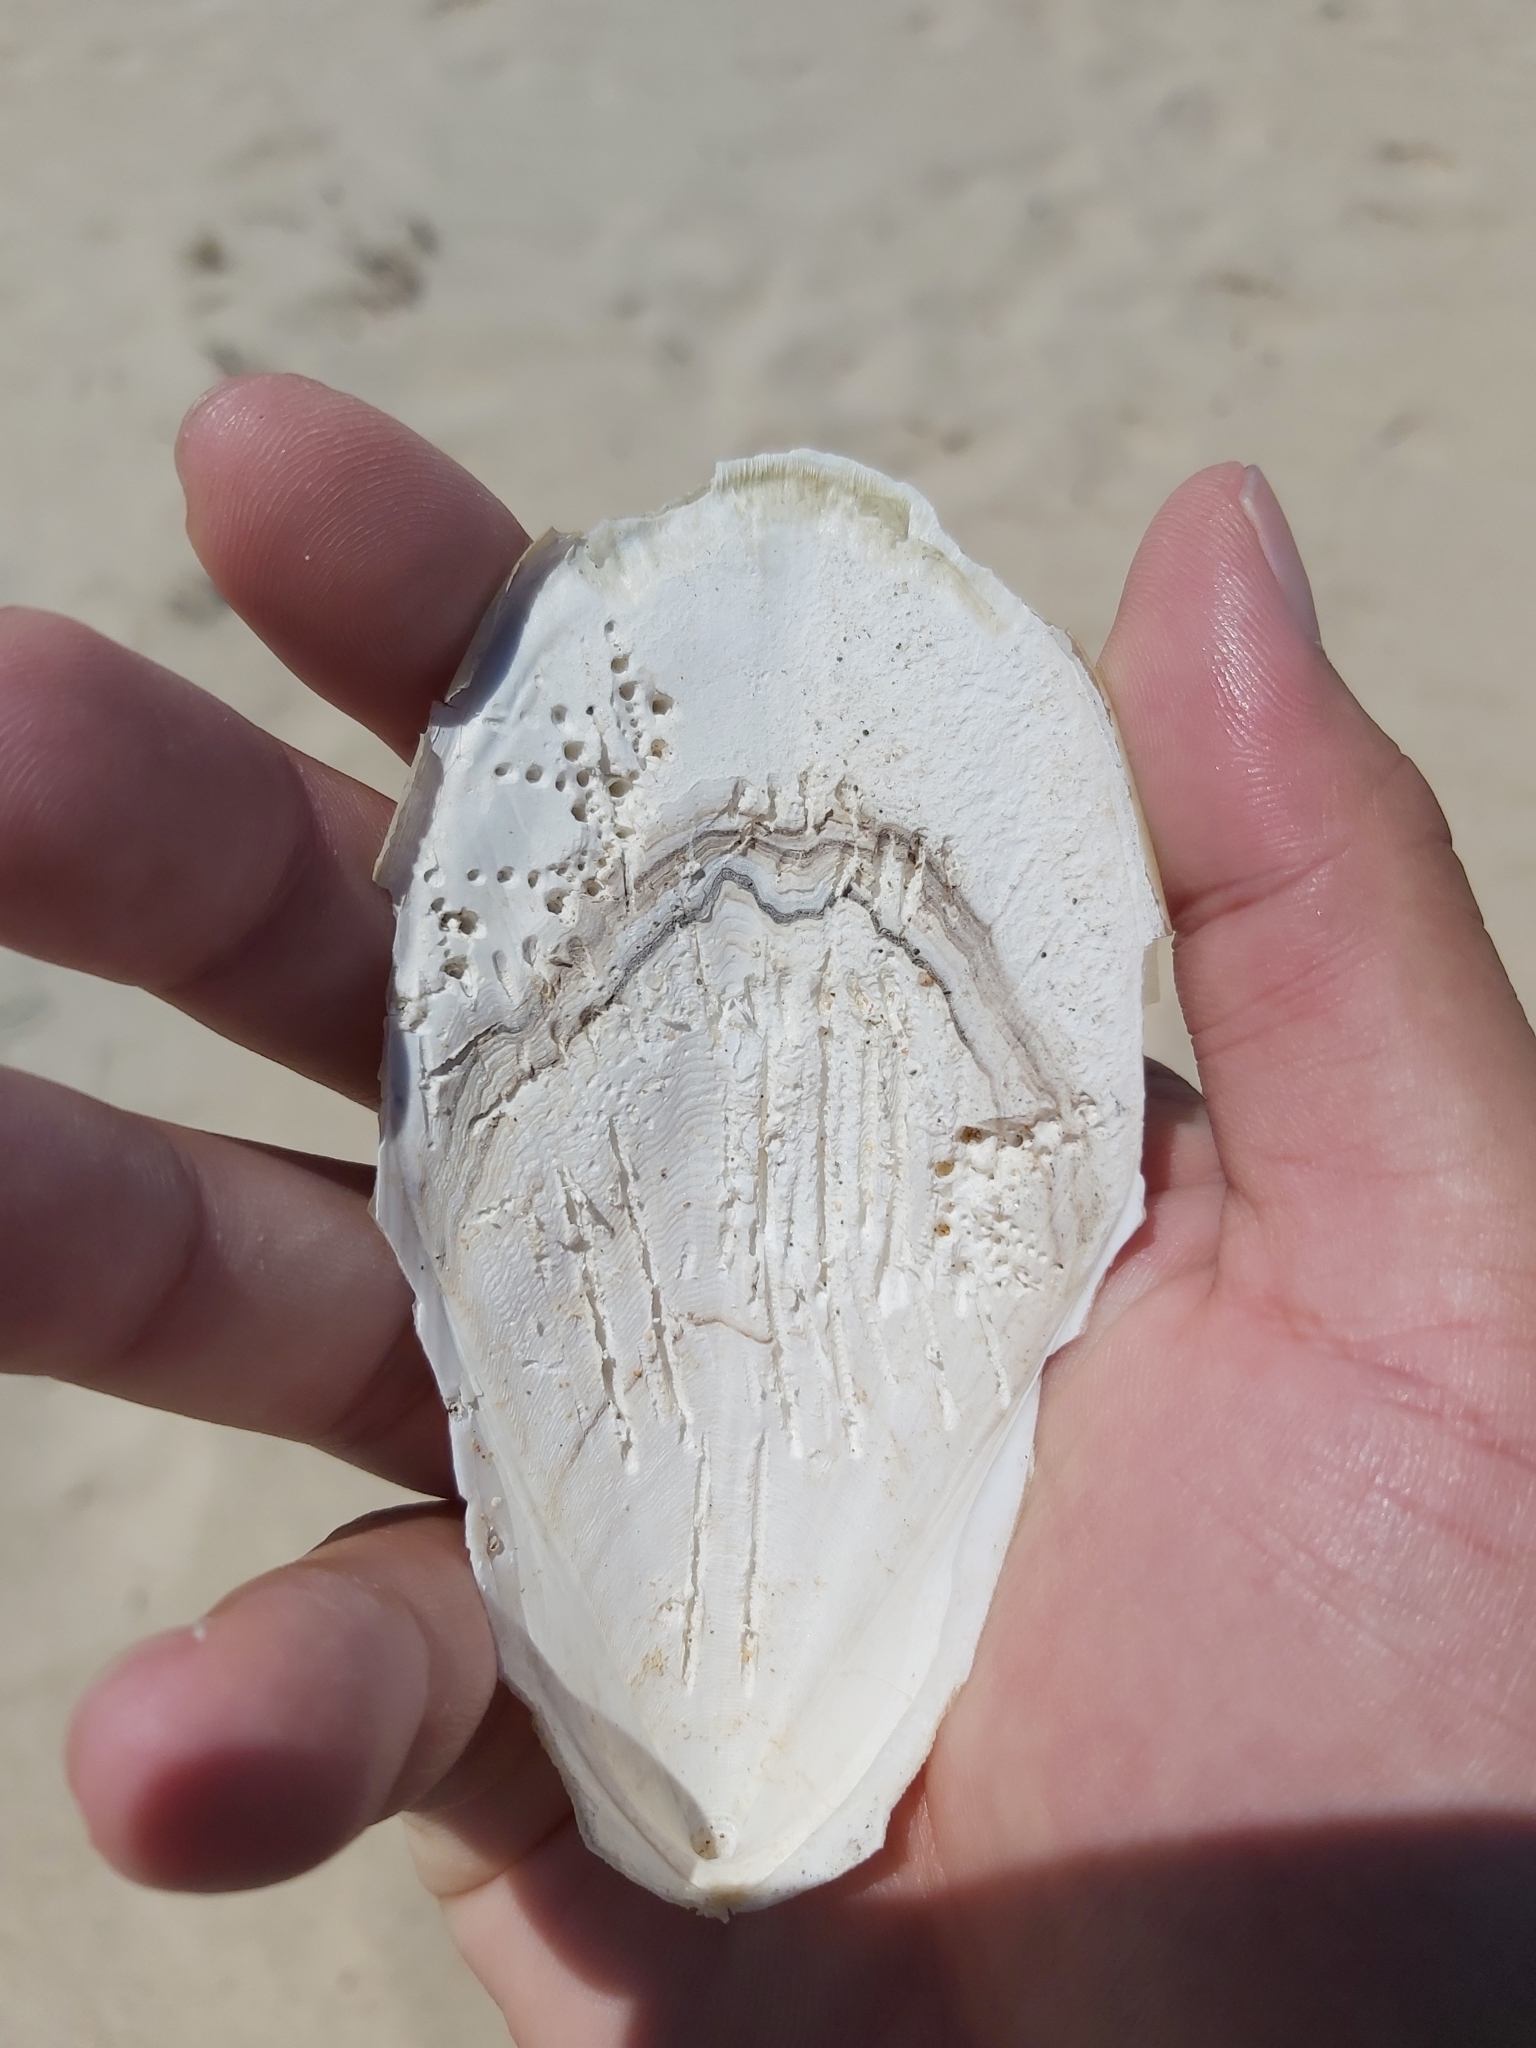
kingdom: Animalia
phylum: Mollusca
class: Cephalopoda
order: Sepiida
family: Sepiidae
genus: Ascarosepion
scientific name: Ascarosepion mestus
